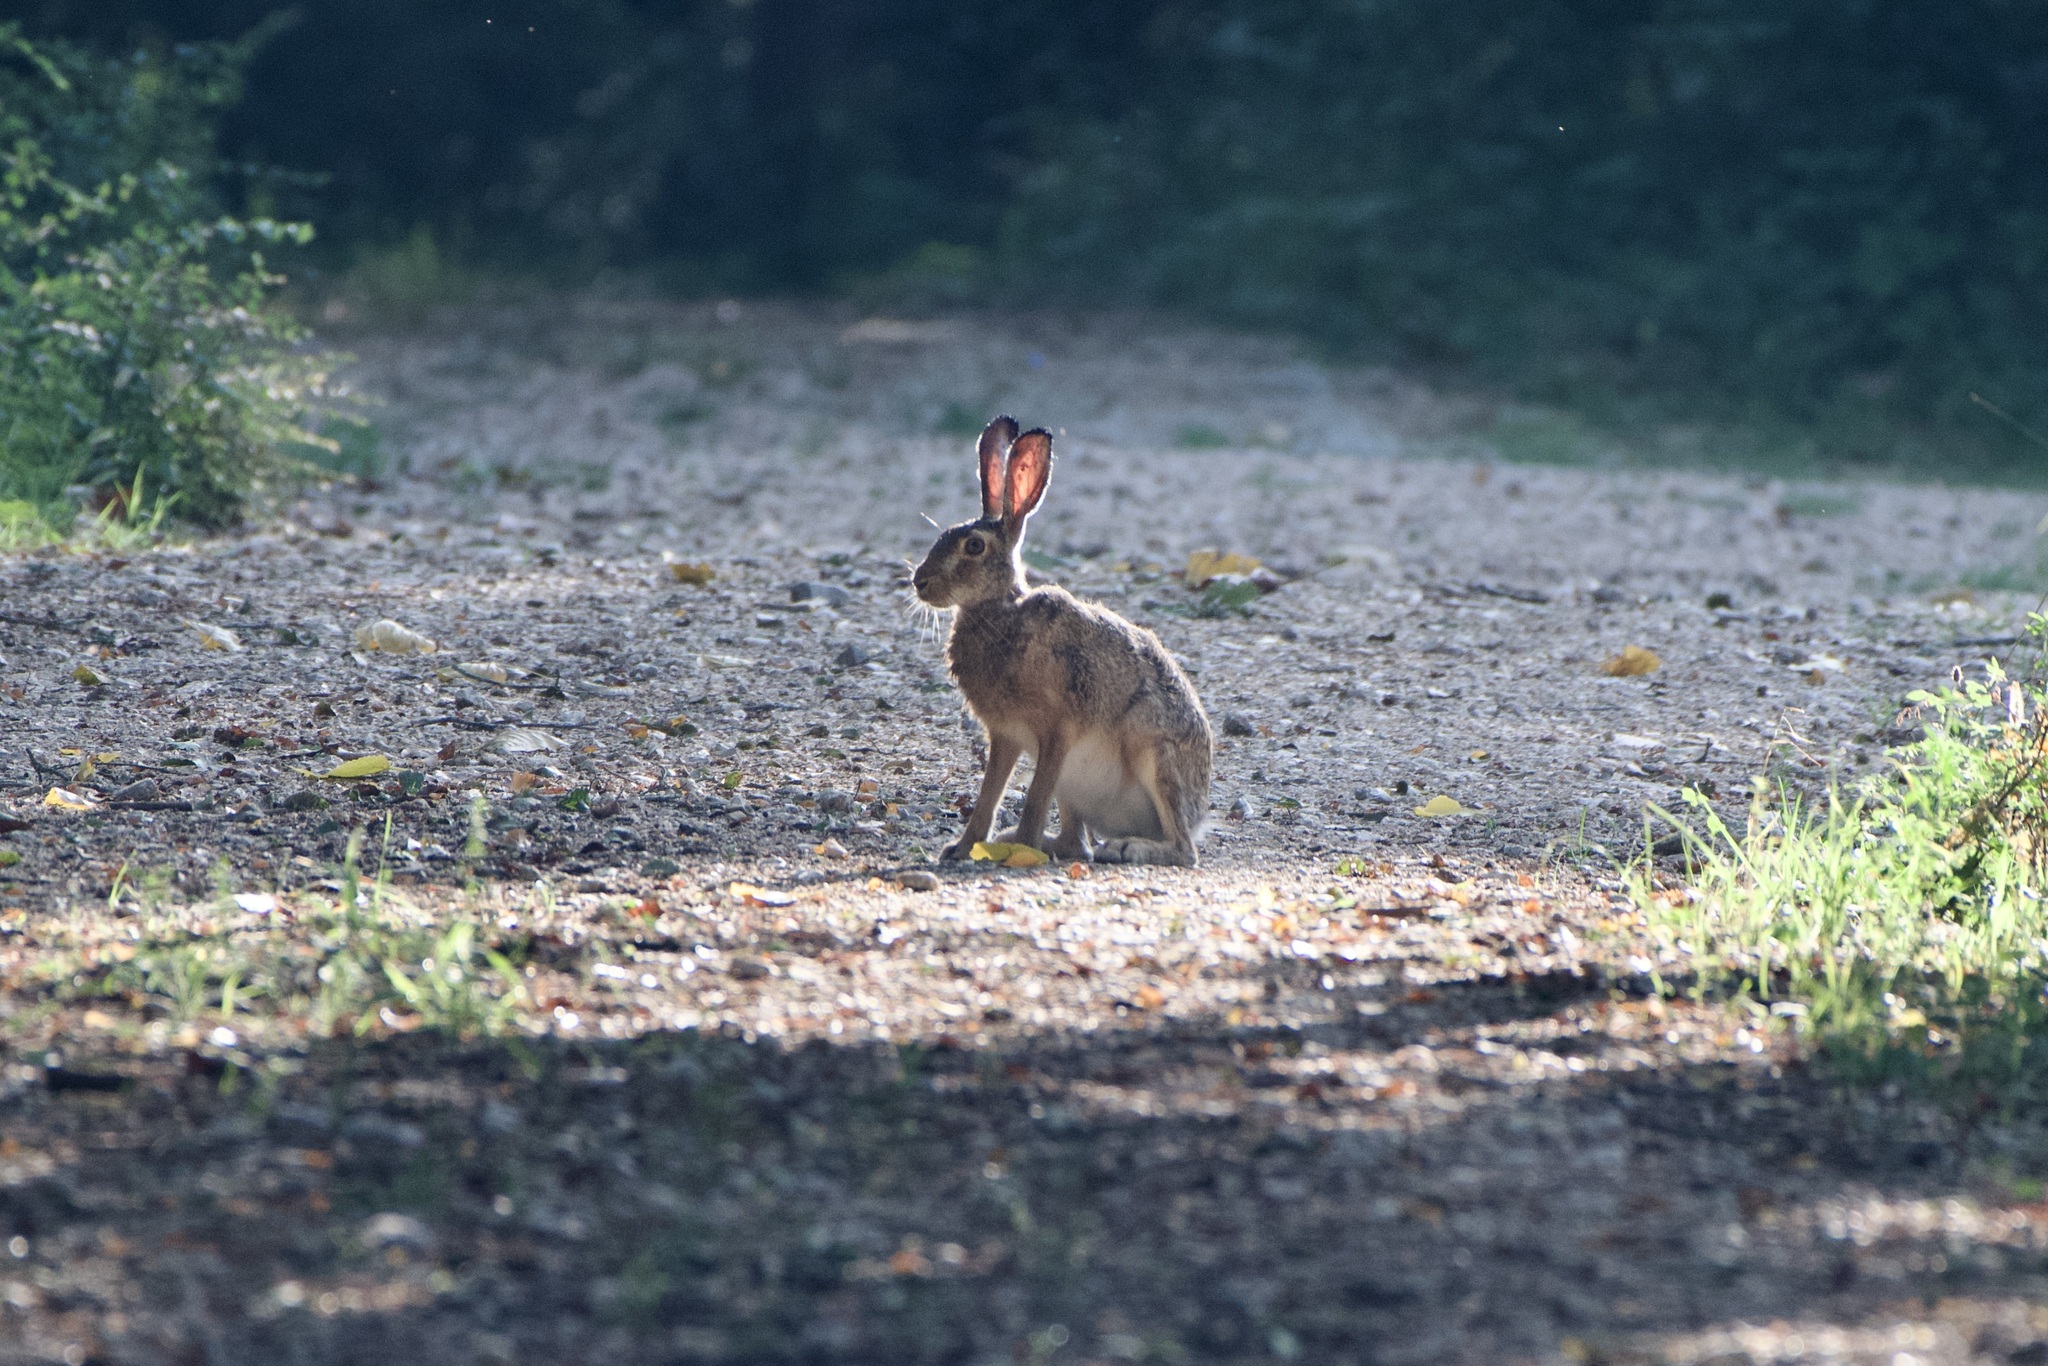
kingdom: Animalia
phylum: Chordata
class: Mammalia
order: Lagomorpha
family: Leporidae
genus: Lepus
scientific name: Lepus europaeus
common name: European hare
